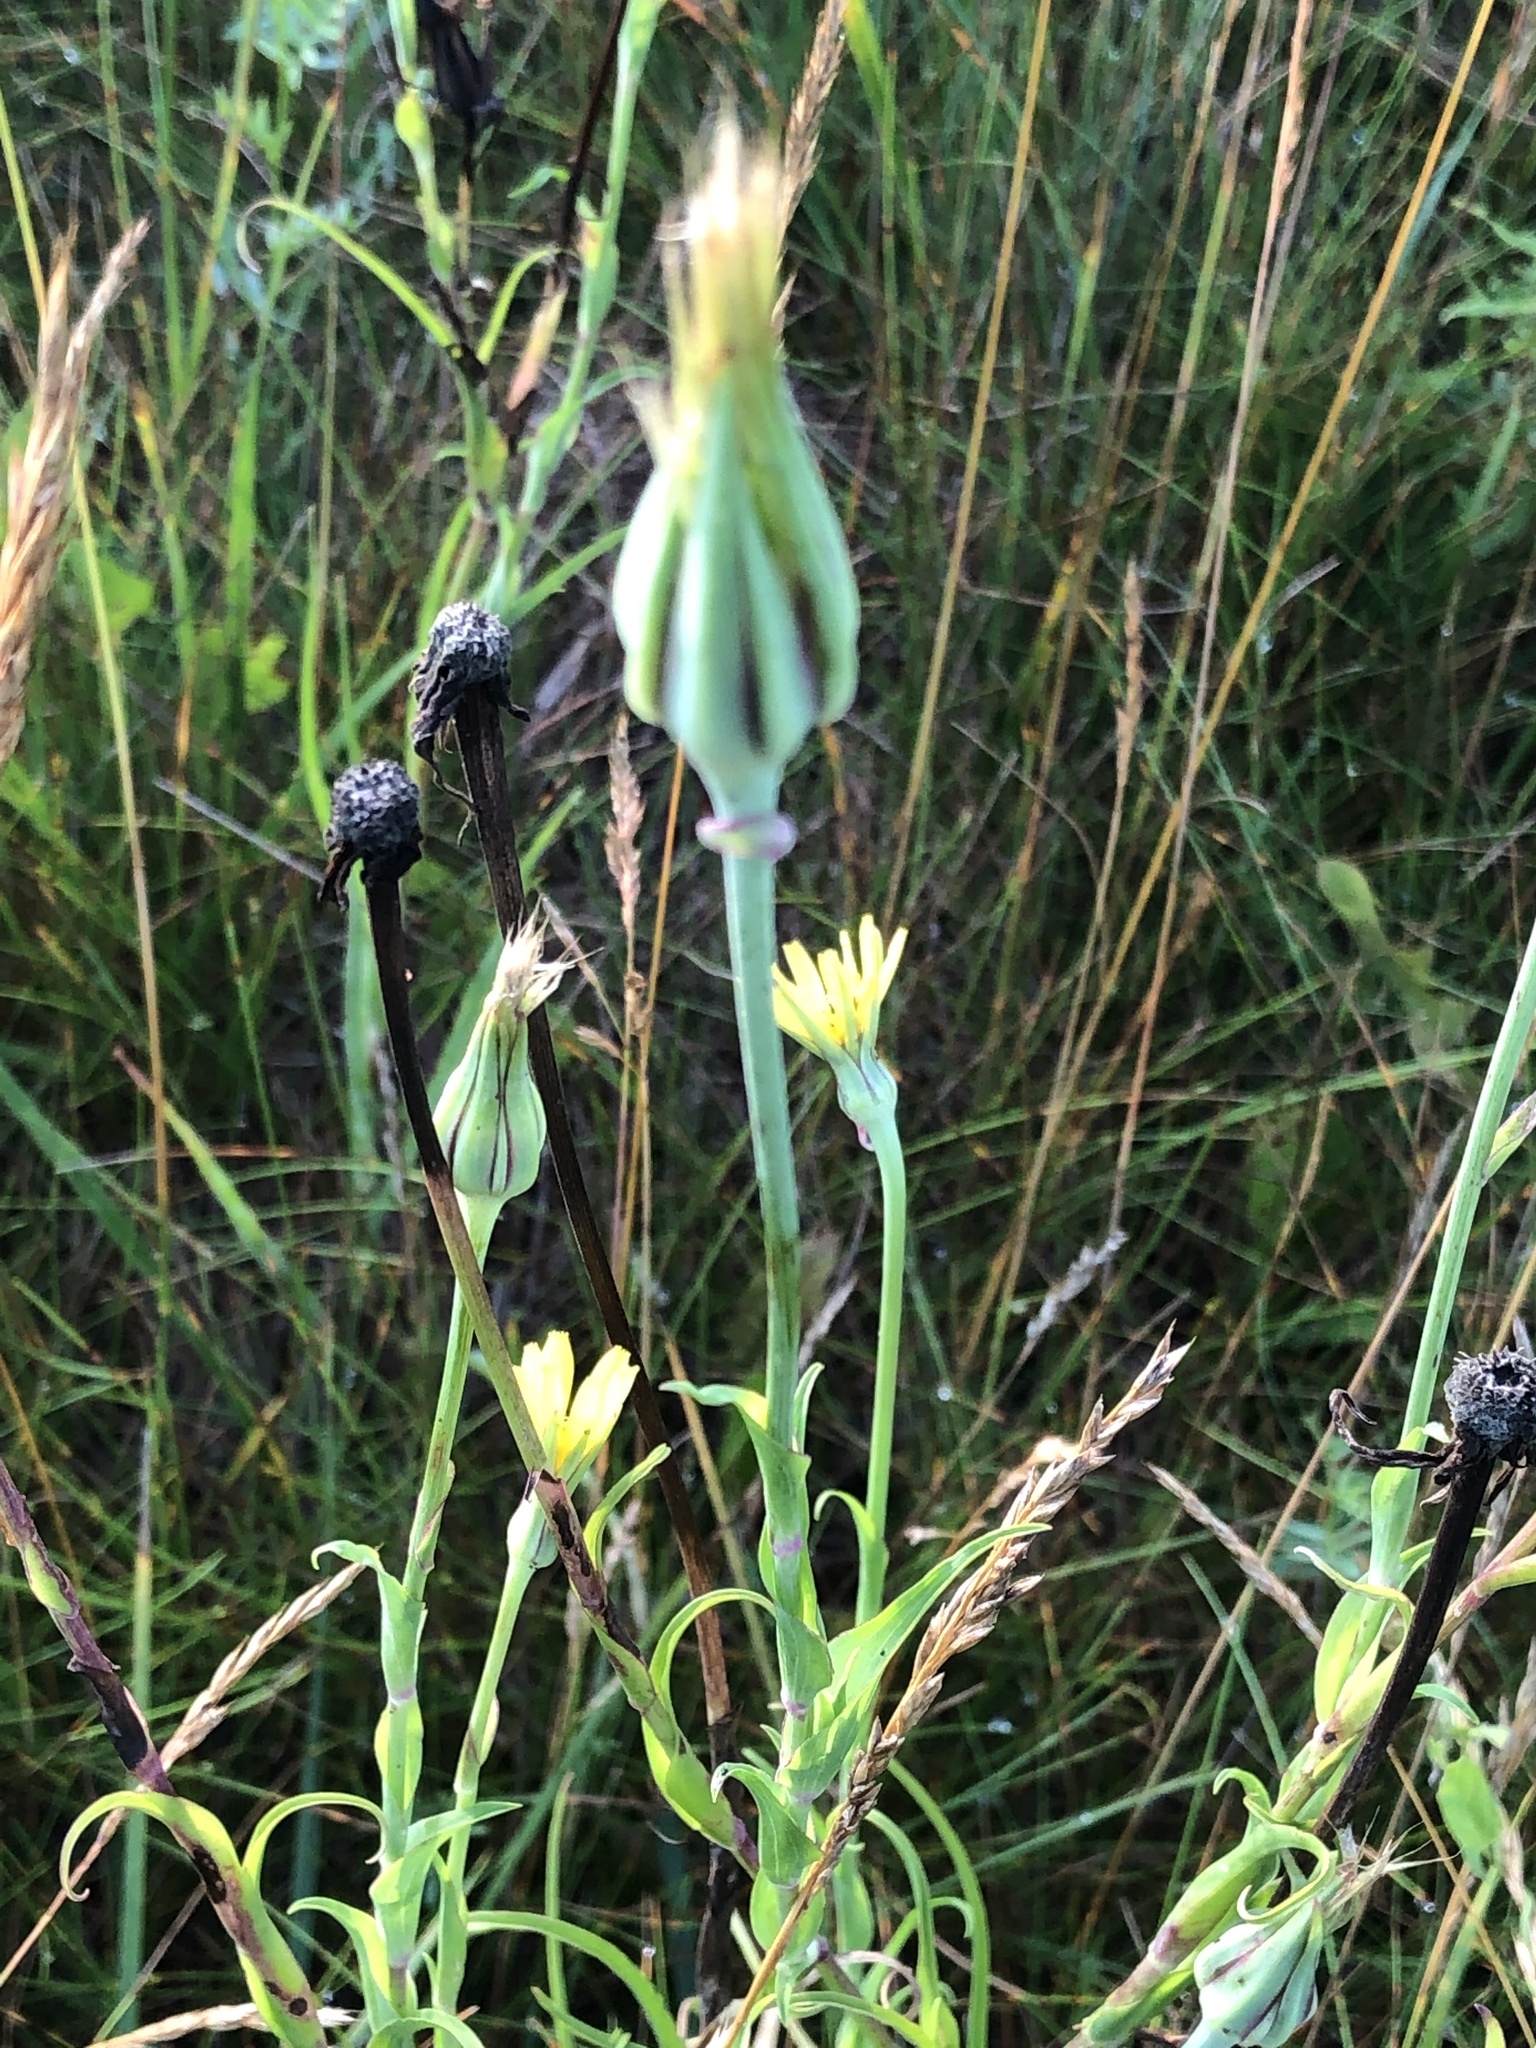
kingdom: Plantae
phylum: Tracheophyta
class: Magnoliopsida
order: Asterales
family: Asteraceae
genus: Tragopogon
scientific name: Tragopogon pratensis
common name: Goat's-beard
